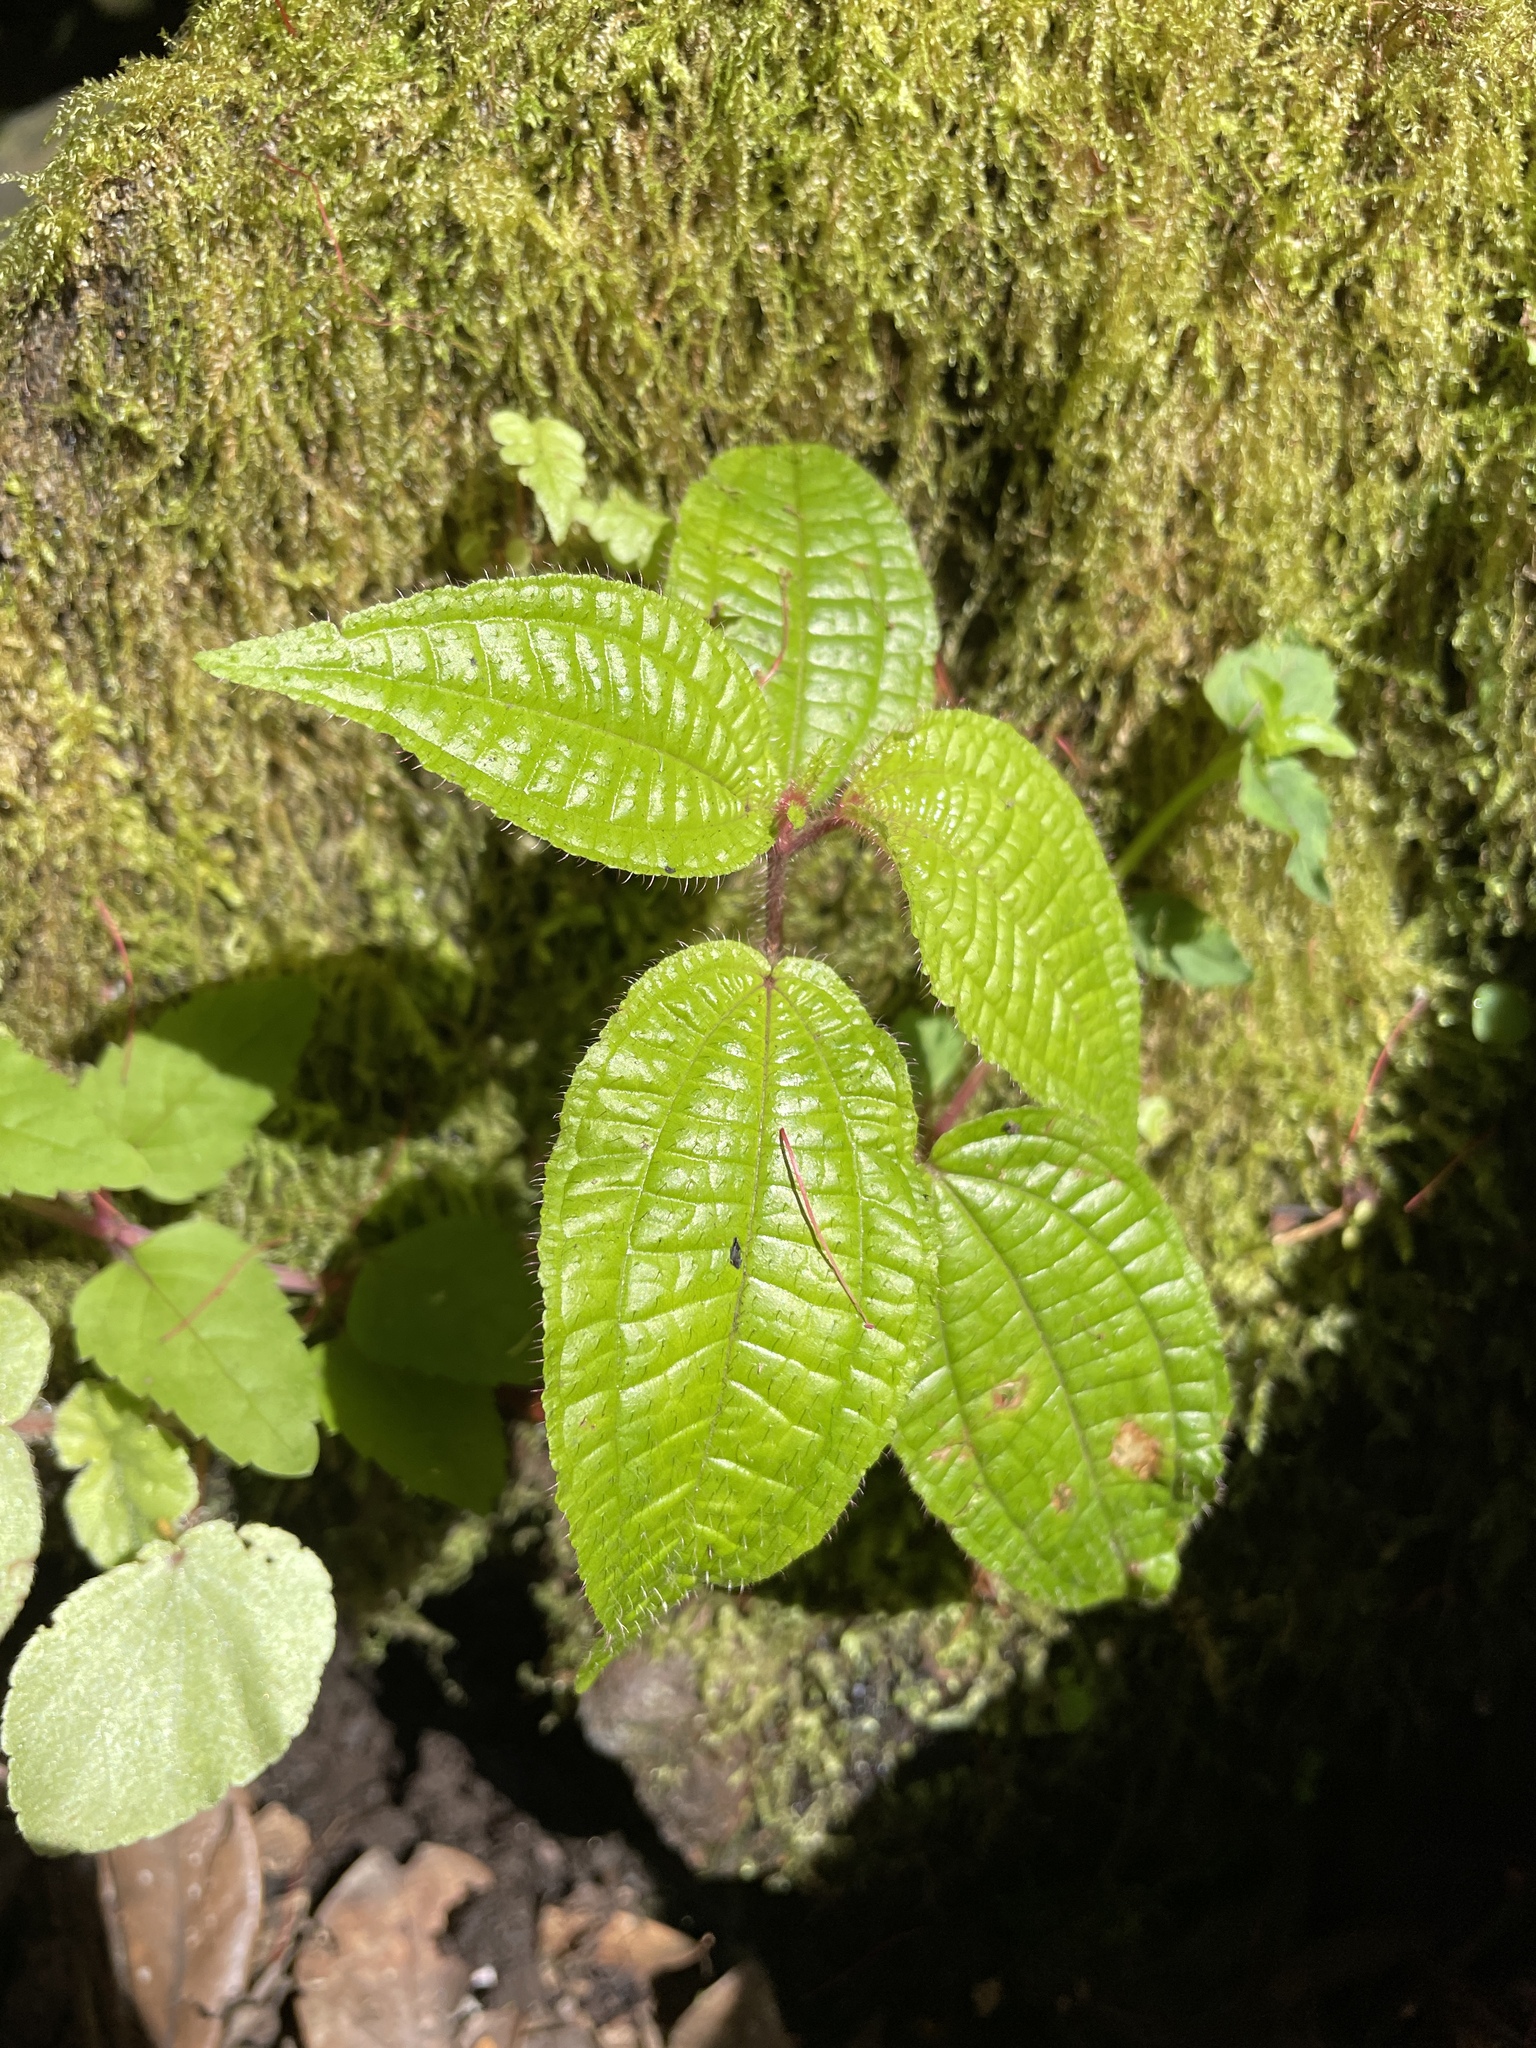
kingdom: Plantae
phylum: Tracheophyta
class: Magnoliopsida
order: Myrtales
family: Melastomataceae
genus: Miconia
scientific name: Miconia crenata
